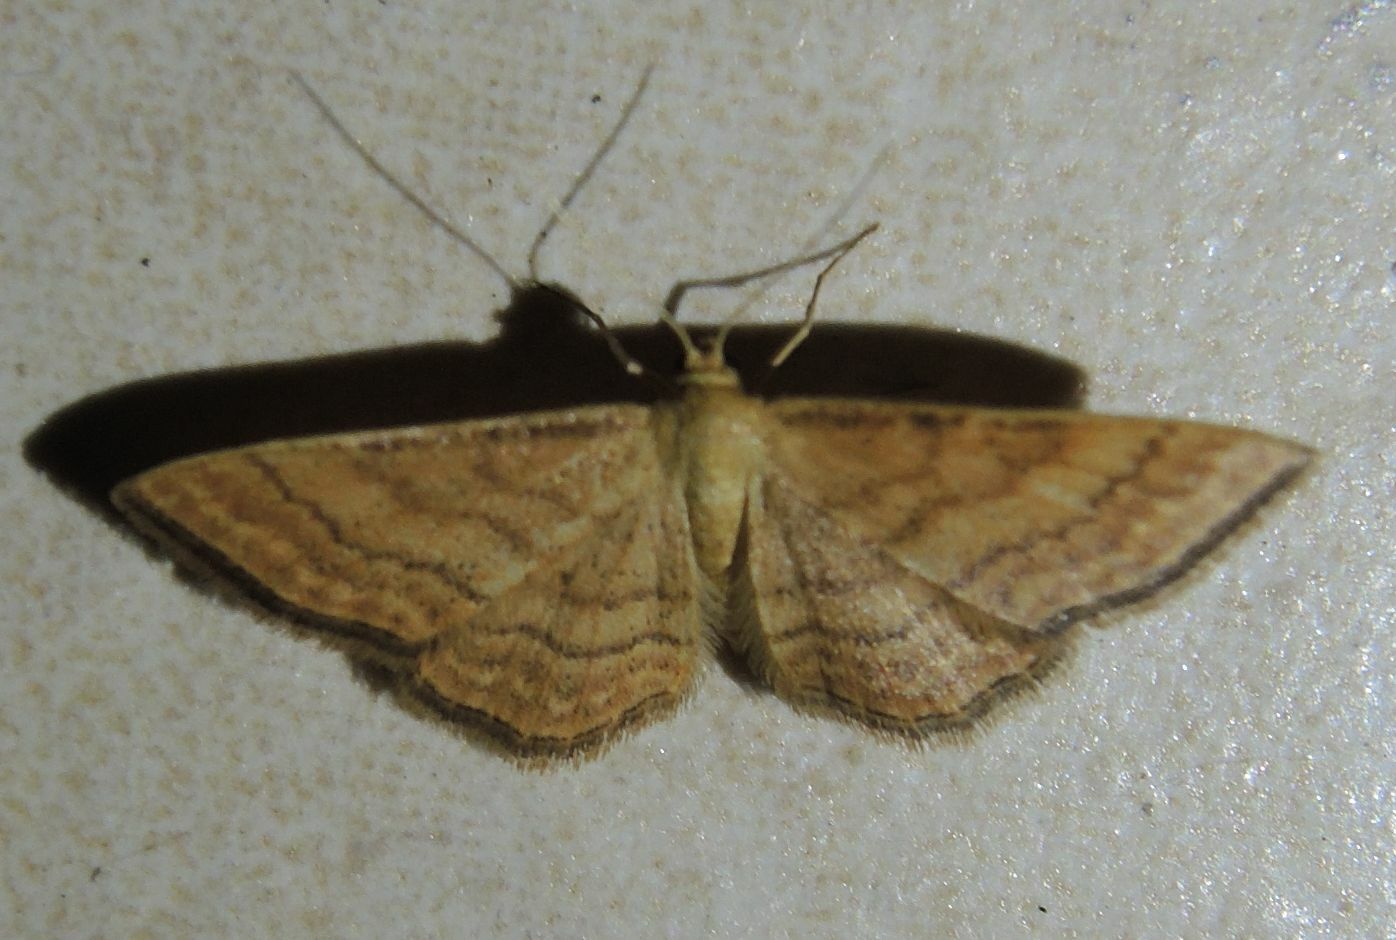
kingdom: Animalia
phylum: Arthropoda
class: Insecta
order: Lepidoptera
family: Geometridae
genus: Idaea
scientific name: Idaea ochrata
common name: Bright wave
